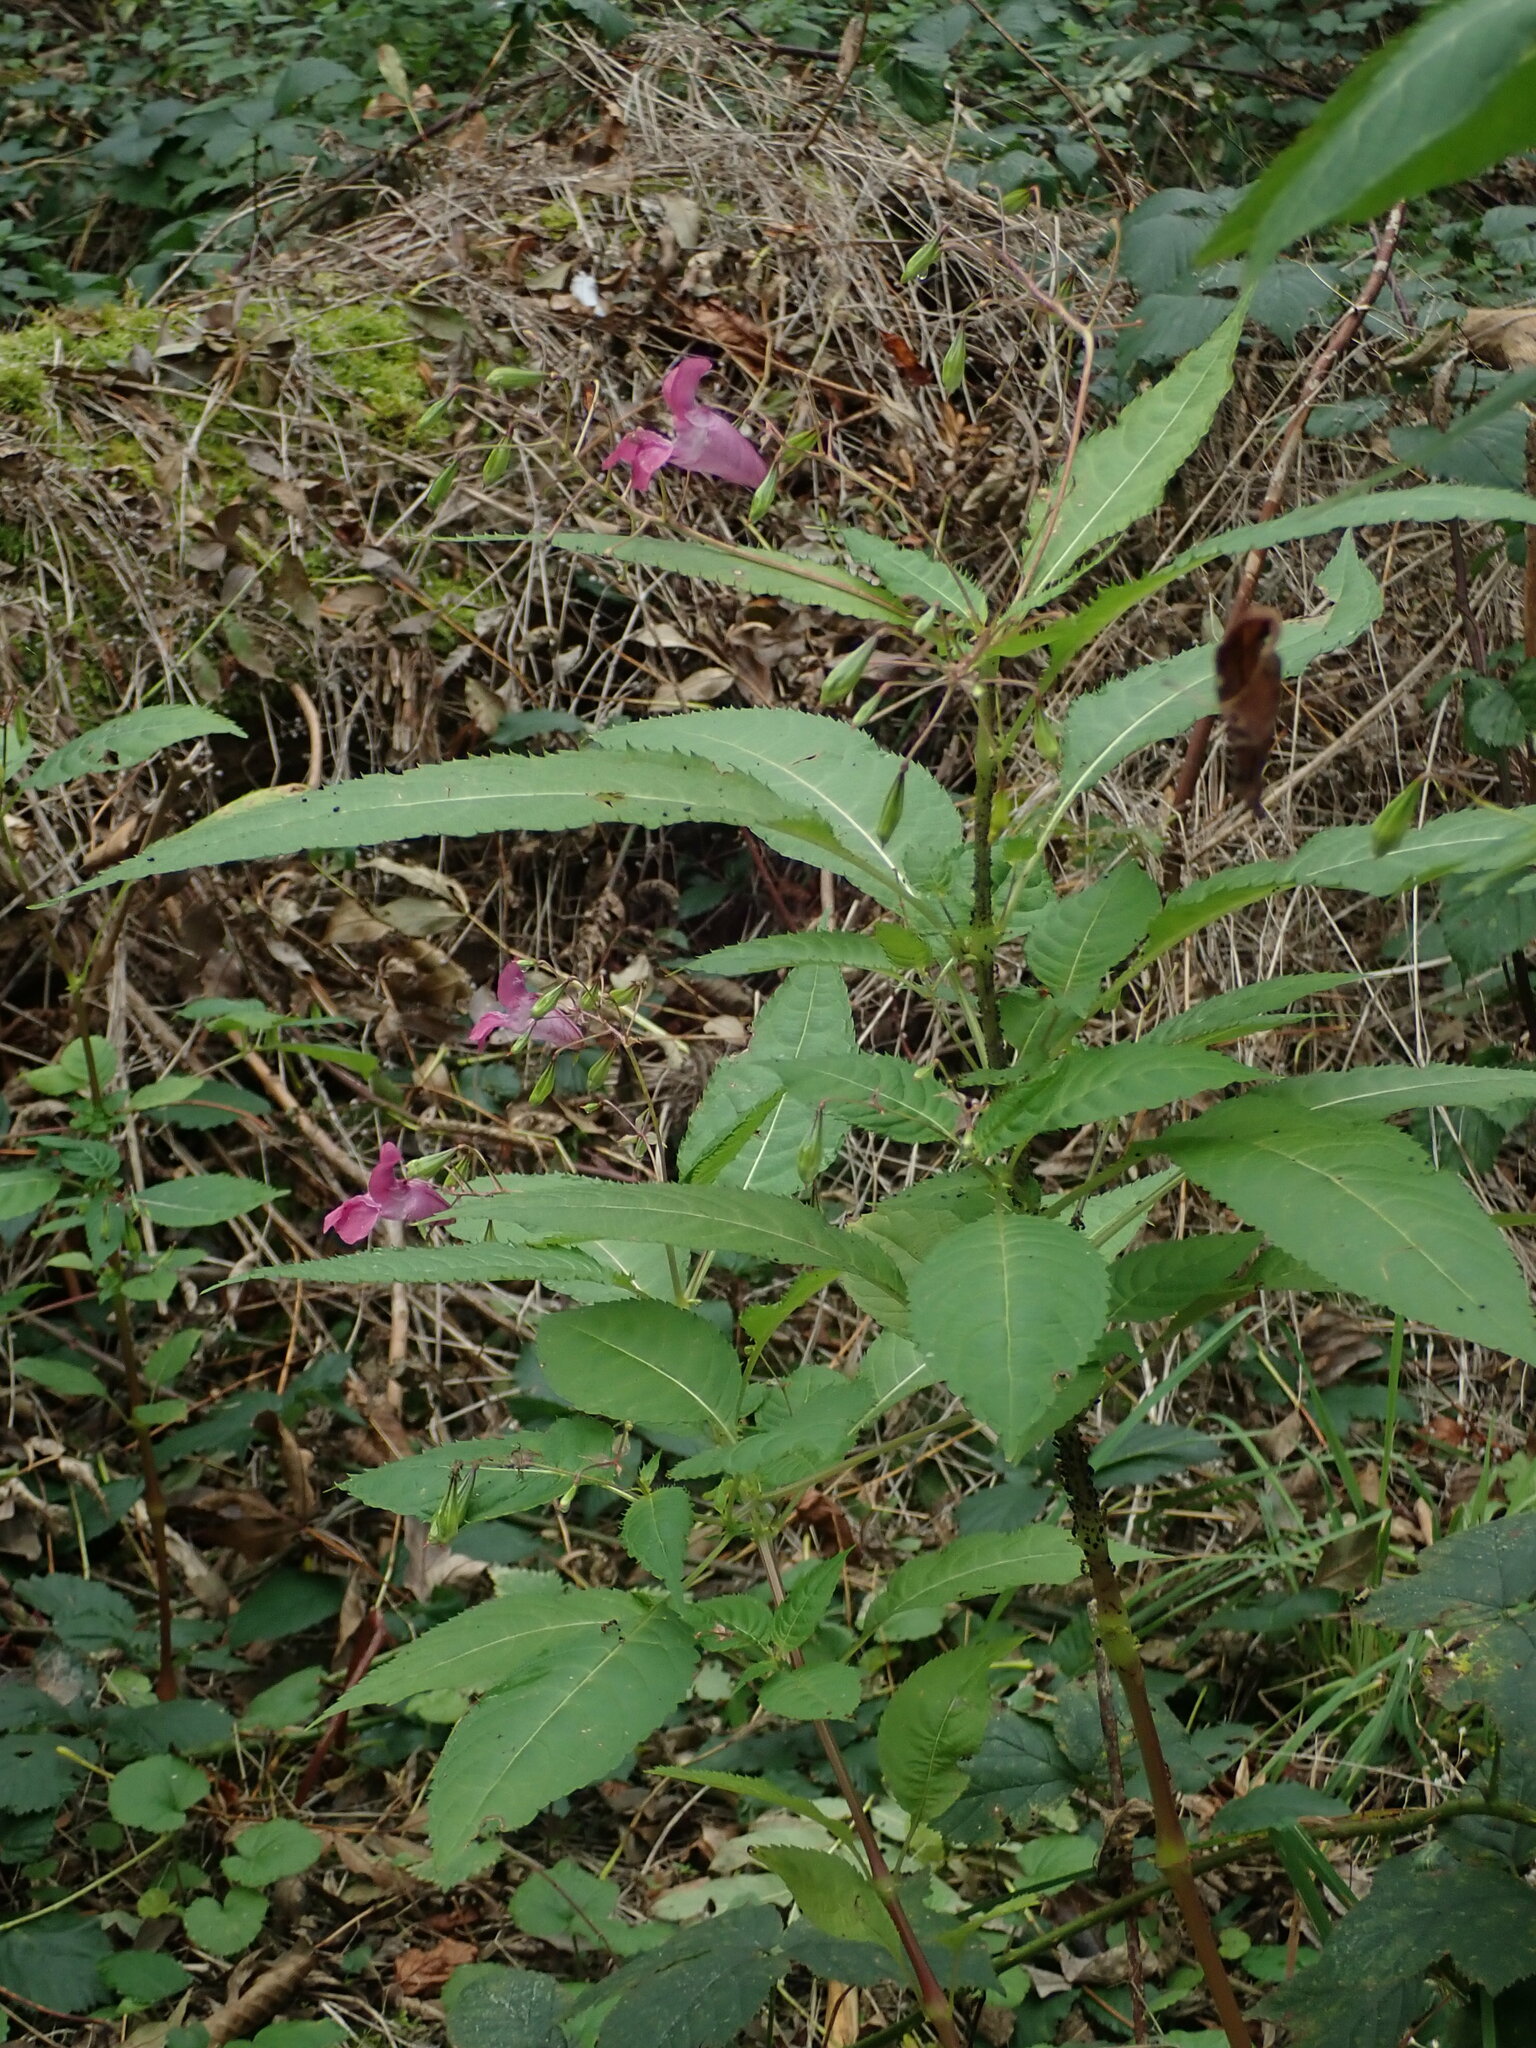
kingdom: Plantae
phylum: Tracheophyta
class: Magnoliopsida
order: Ericales
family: Balsaminaceae
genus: Impatiens
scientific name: Impatiens glandulifera
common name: Himalayan balsam
